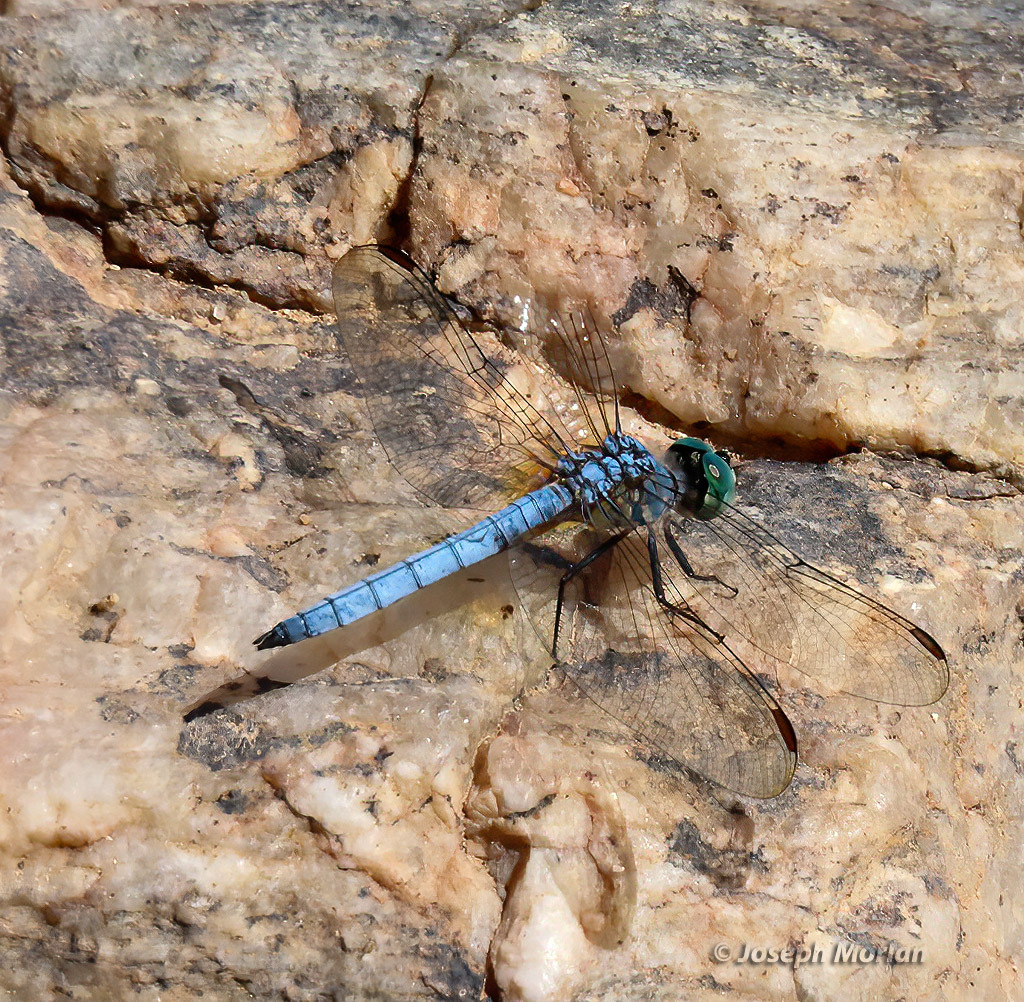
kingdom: Animalia
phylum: Arthropoda
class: Insecta
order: Odonata
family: Libellulidae
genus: Pachydiplax
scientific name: Pachydiplax longipennis
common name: Blue dasher
